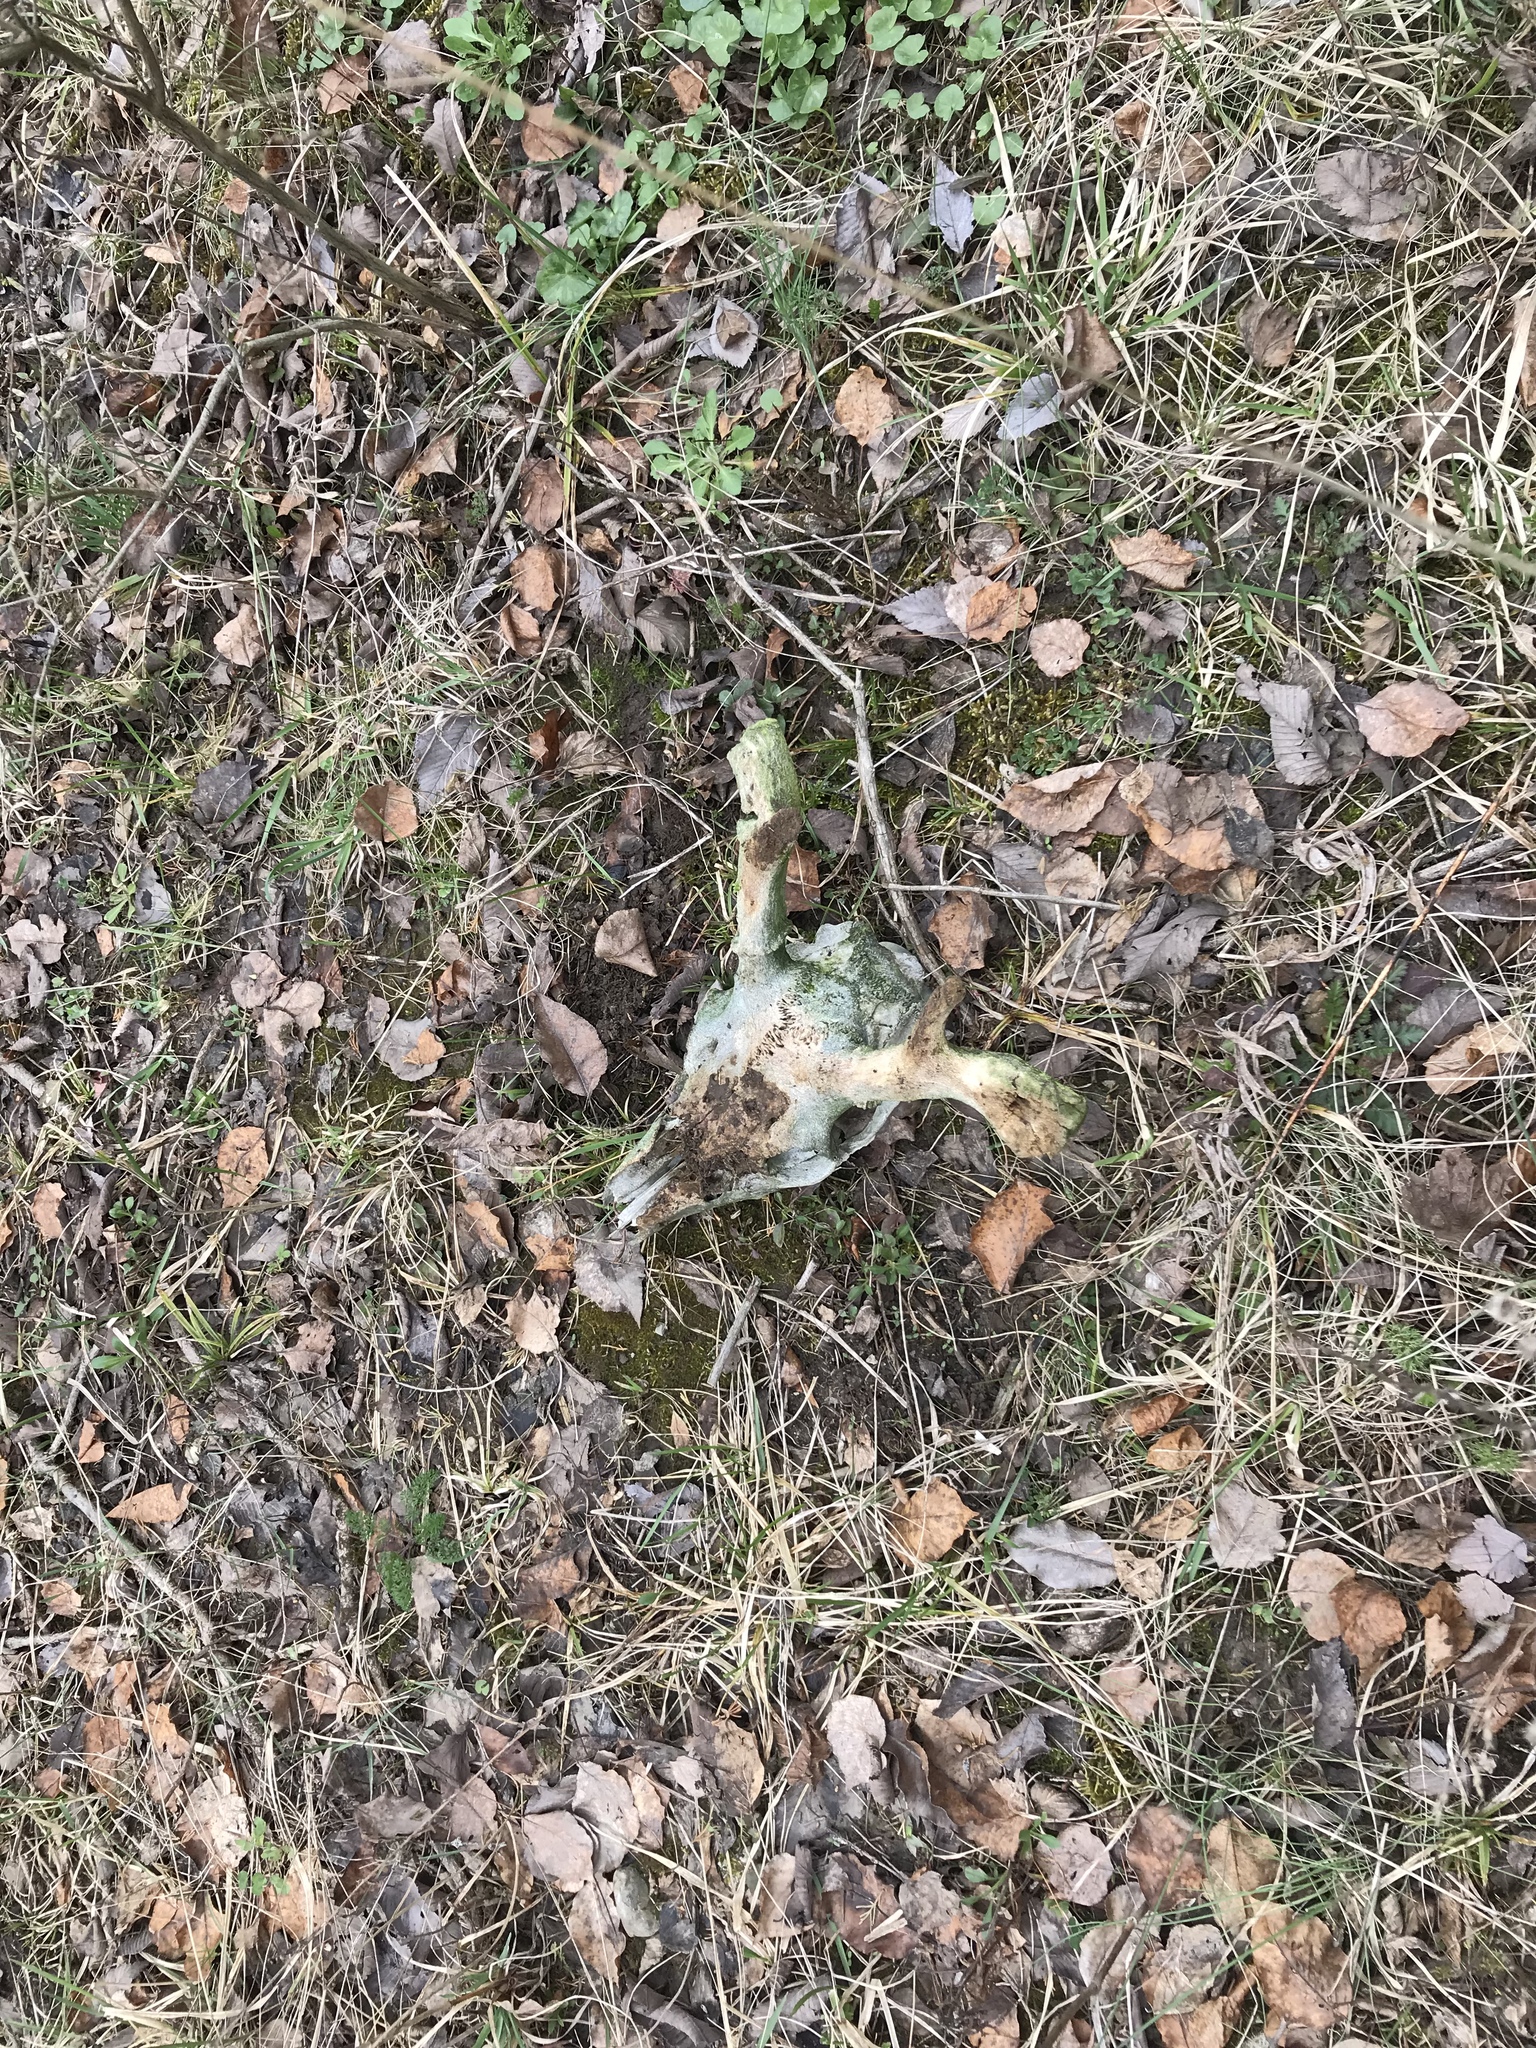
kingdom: Animalia
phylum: Chordata
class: Mammalia
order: Artiodactyla
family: Cervidae
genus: Odocoileus
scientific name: Odocoileus virginianus
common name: White-tailed deer
